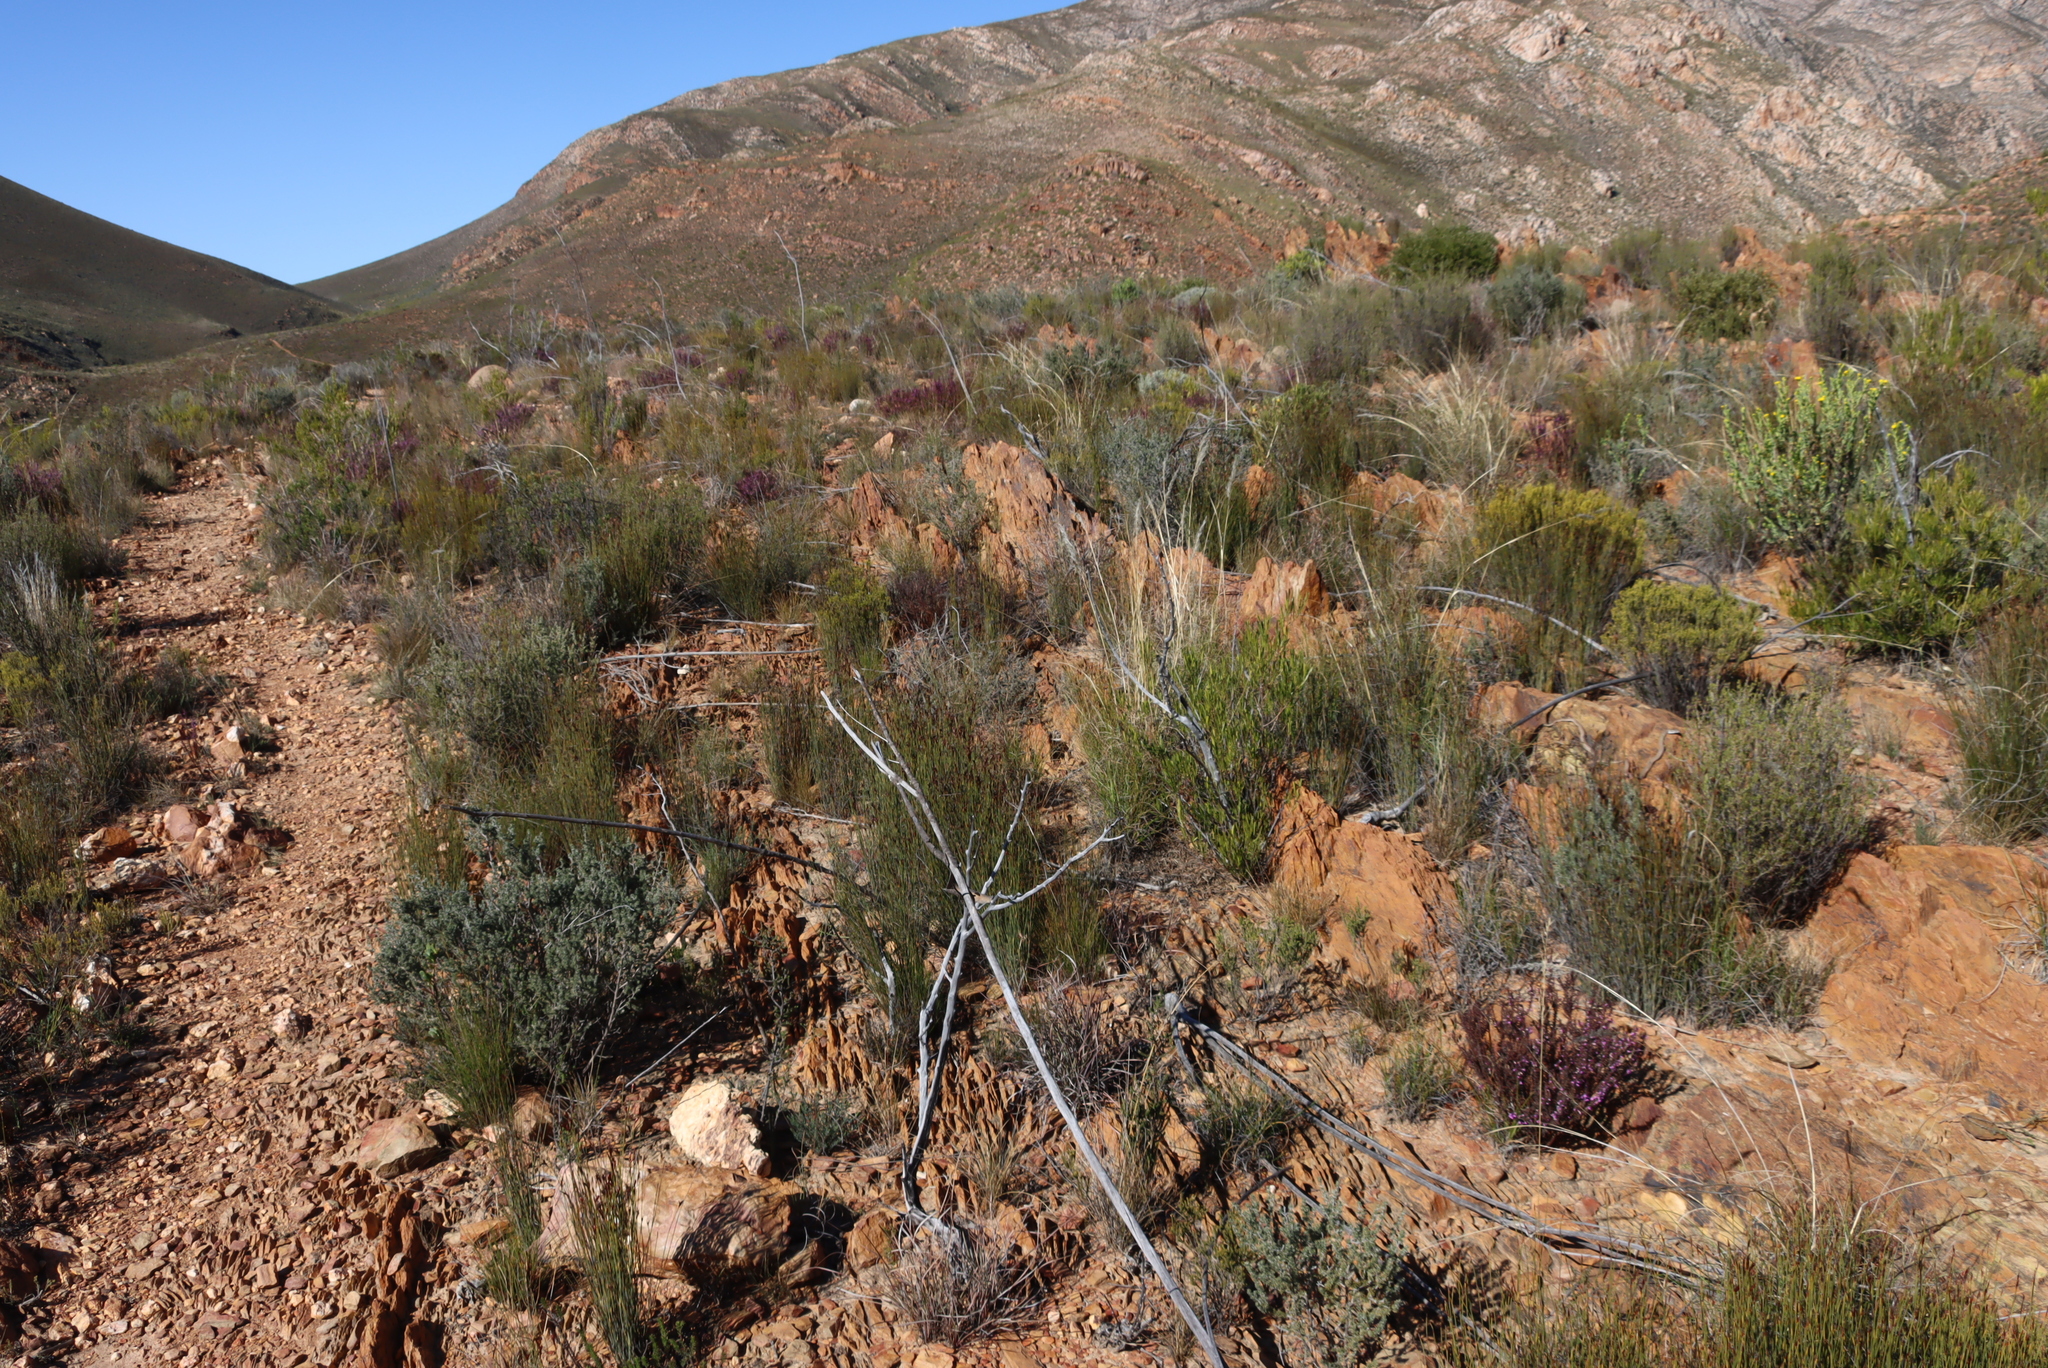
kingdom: Plantae
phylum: Tracheophyta
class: Liliopsida
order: Poales
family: Restionaceae
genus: Hypodiscus
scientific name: Hypodiscus striatus
